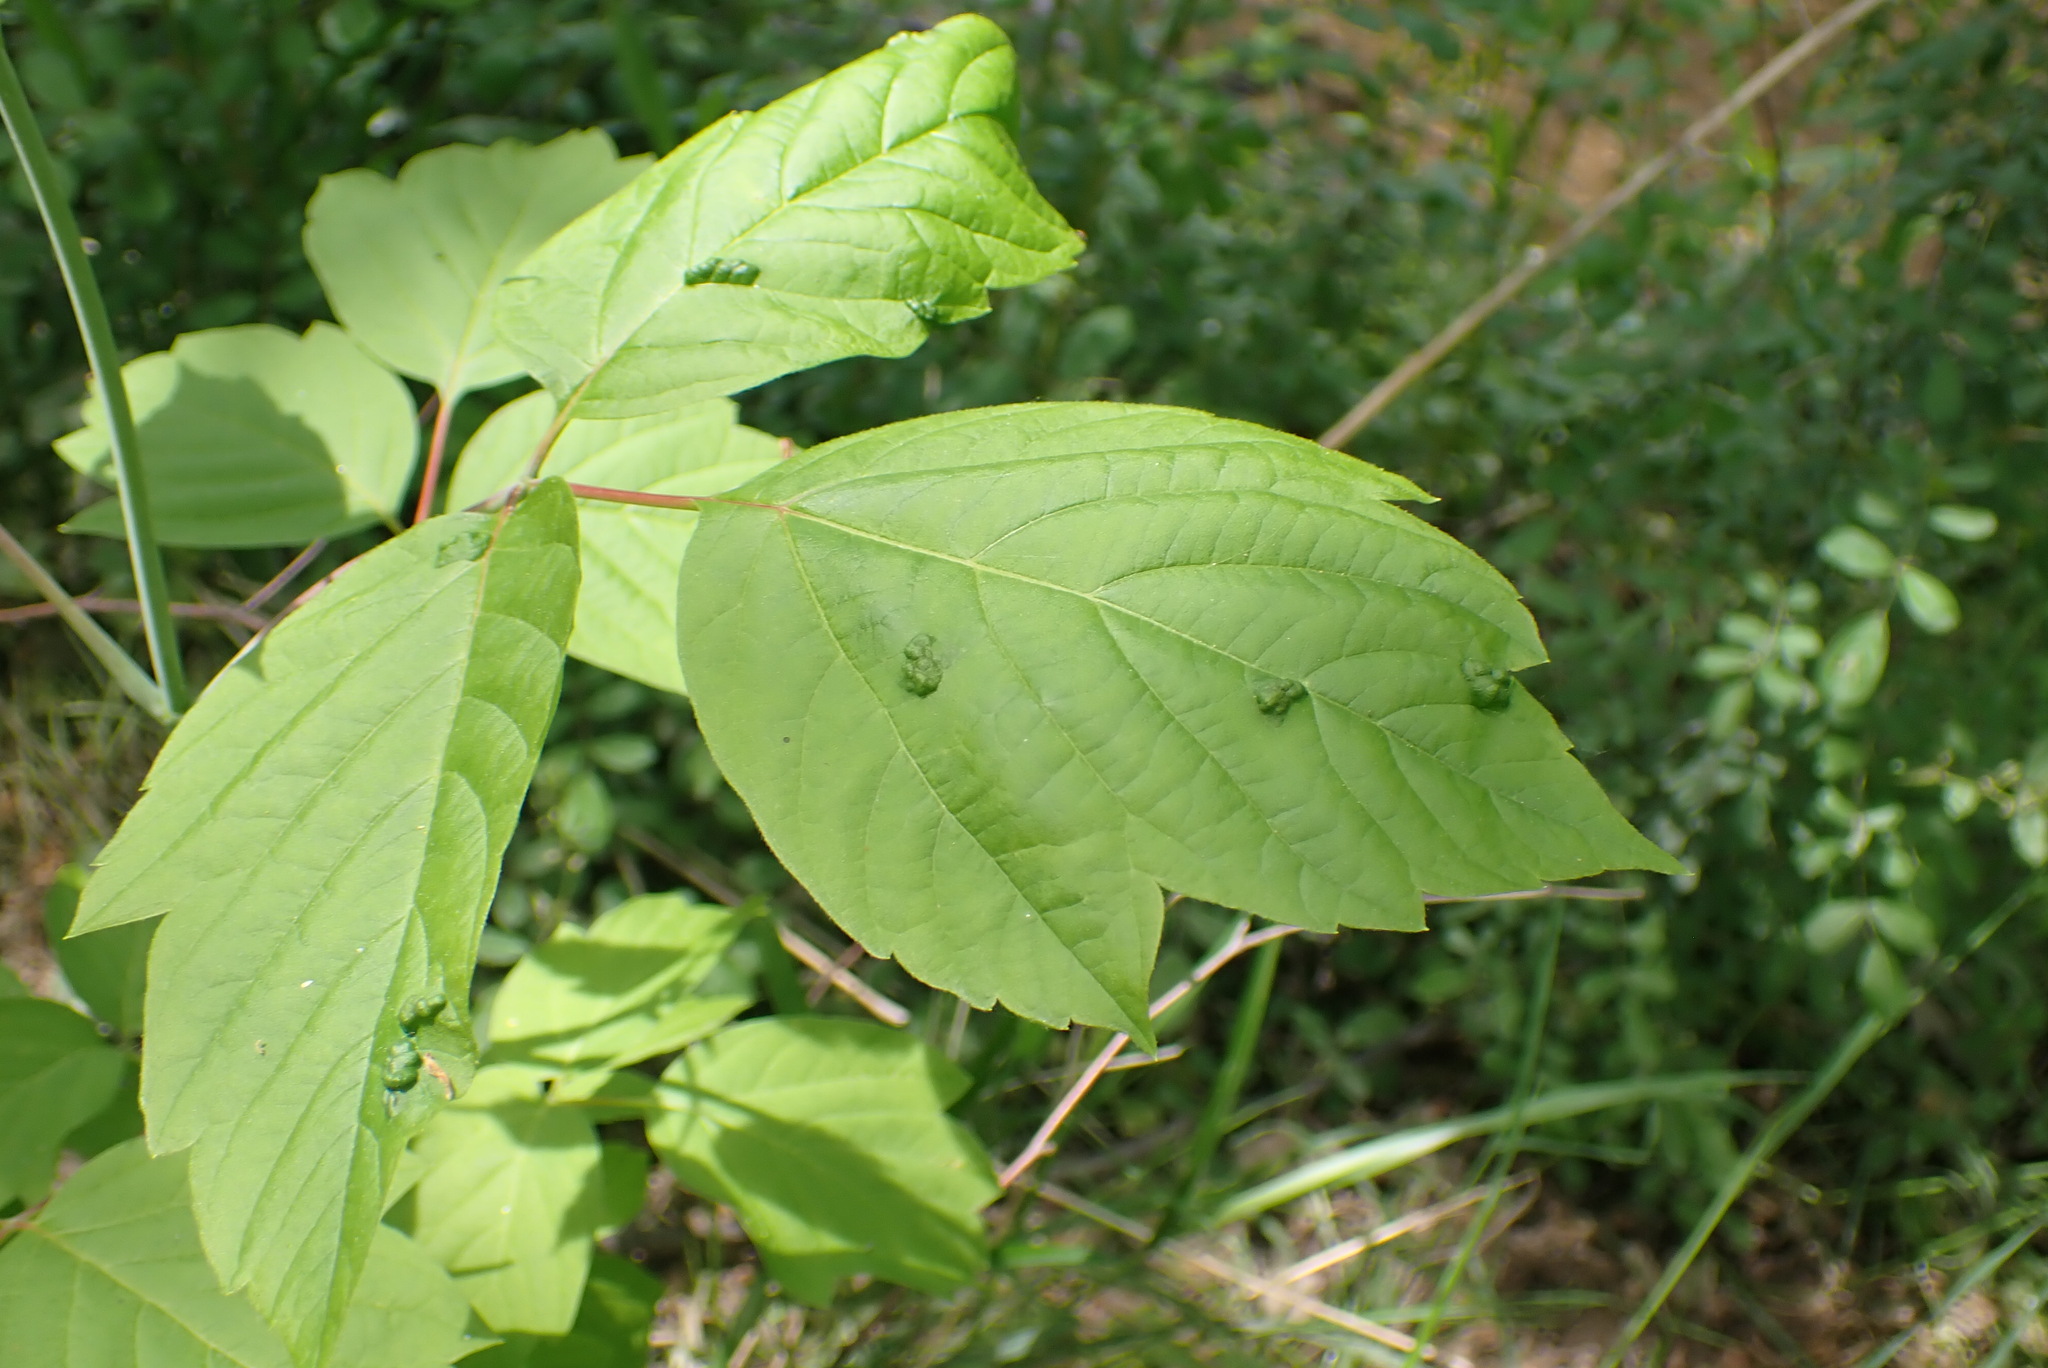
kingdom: Animalia
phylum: Arthropoda
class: Arachnida
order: Trombidiformes
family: Eriophyidae
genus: Aceria
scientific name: Aceria
